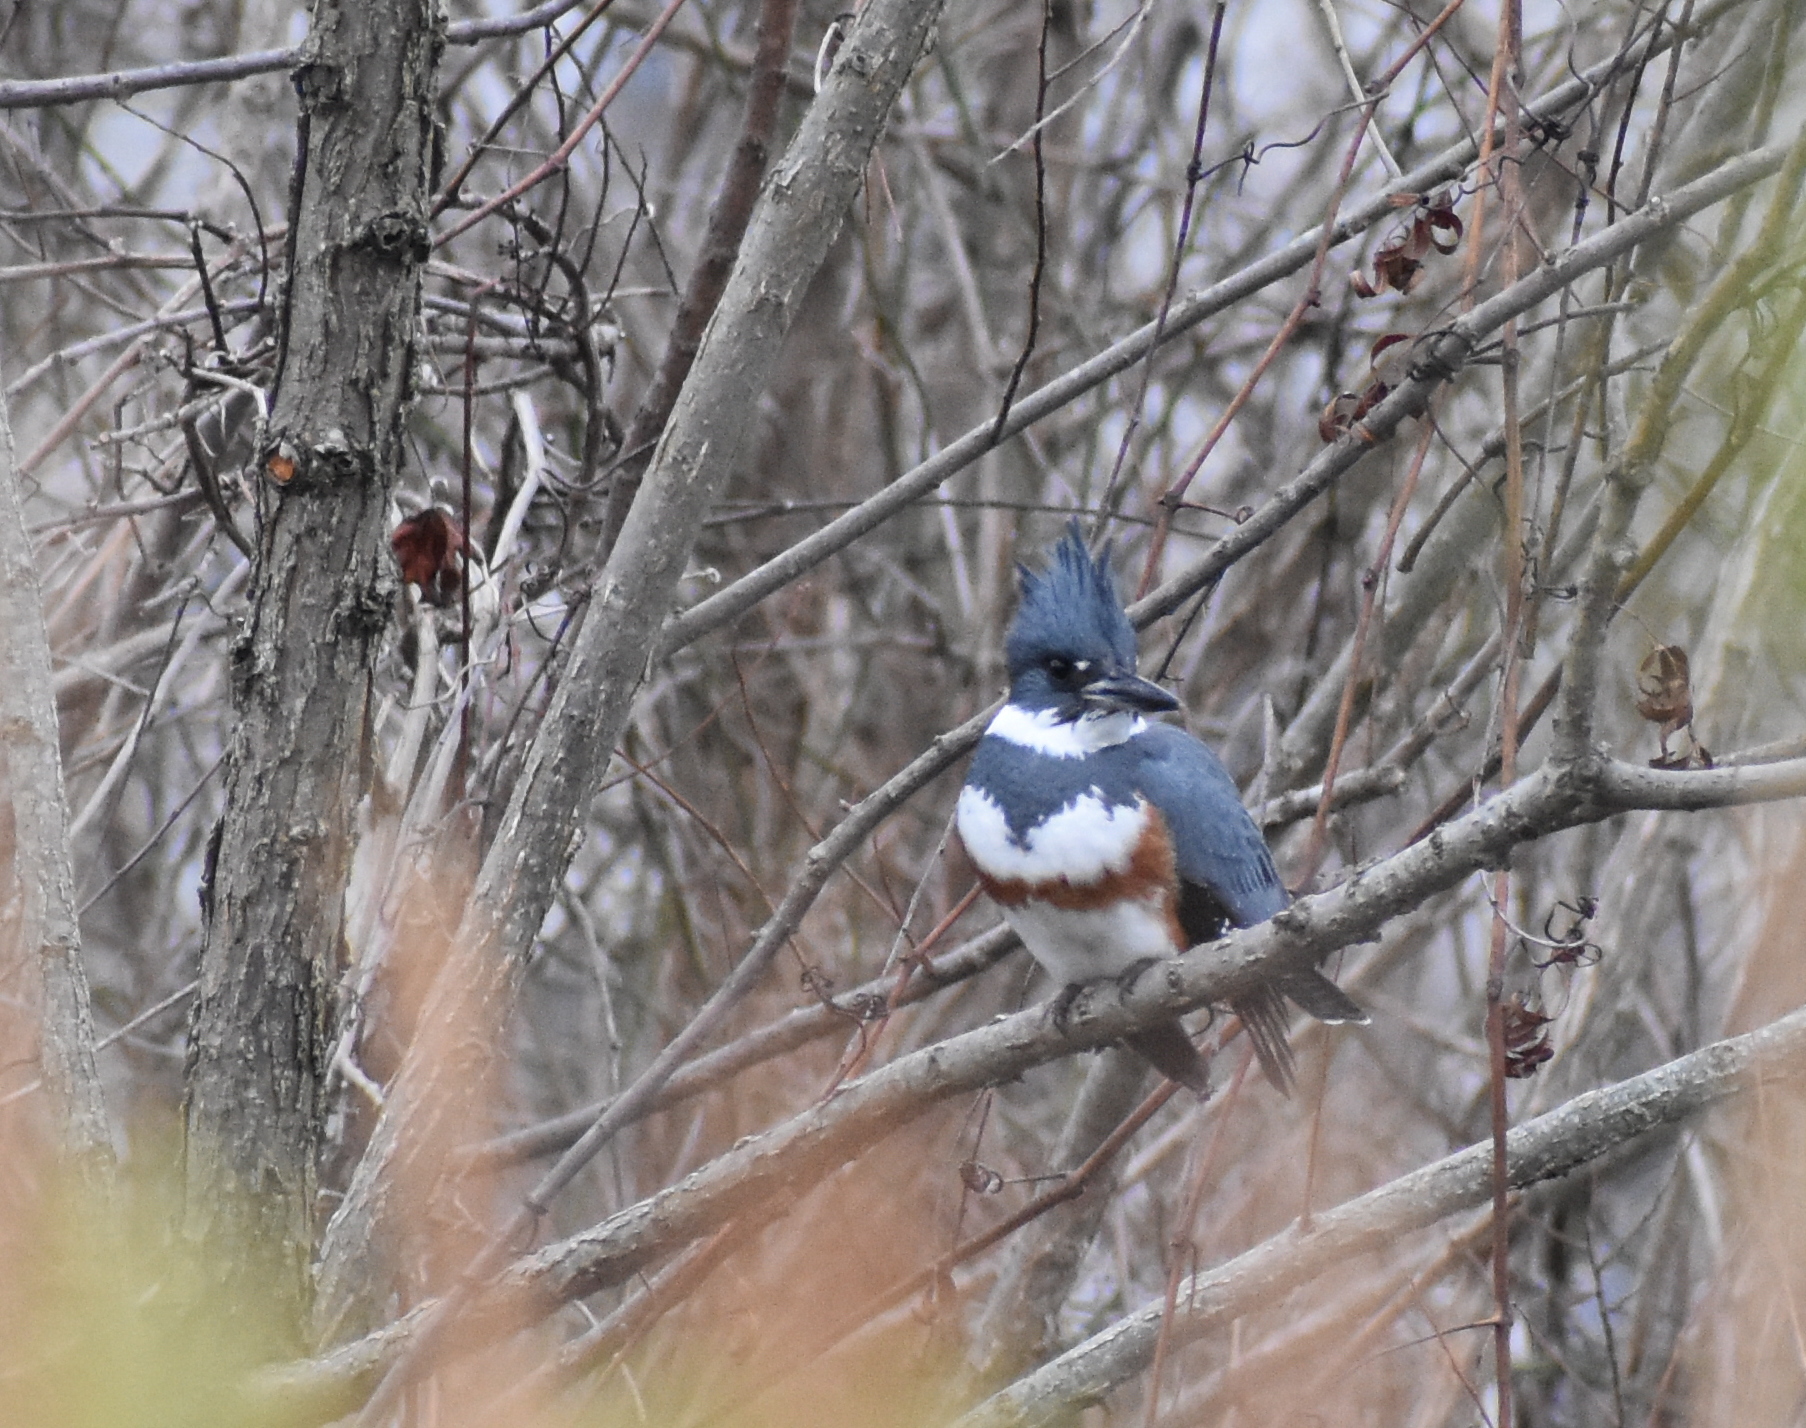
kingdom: Animalia
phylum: Chordata
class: Aves
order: Coraciiformes
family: Alcedinidae
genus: Megaceryle
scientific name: Megaceryle alcyon
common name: Belted kingfisher
